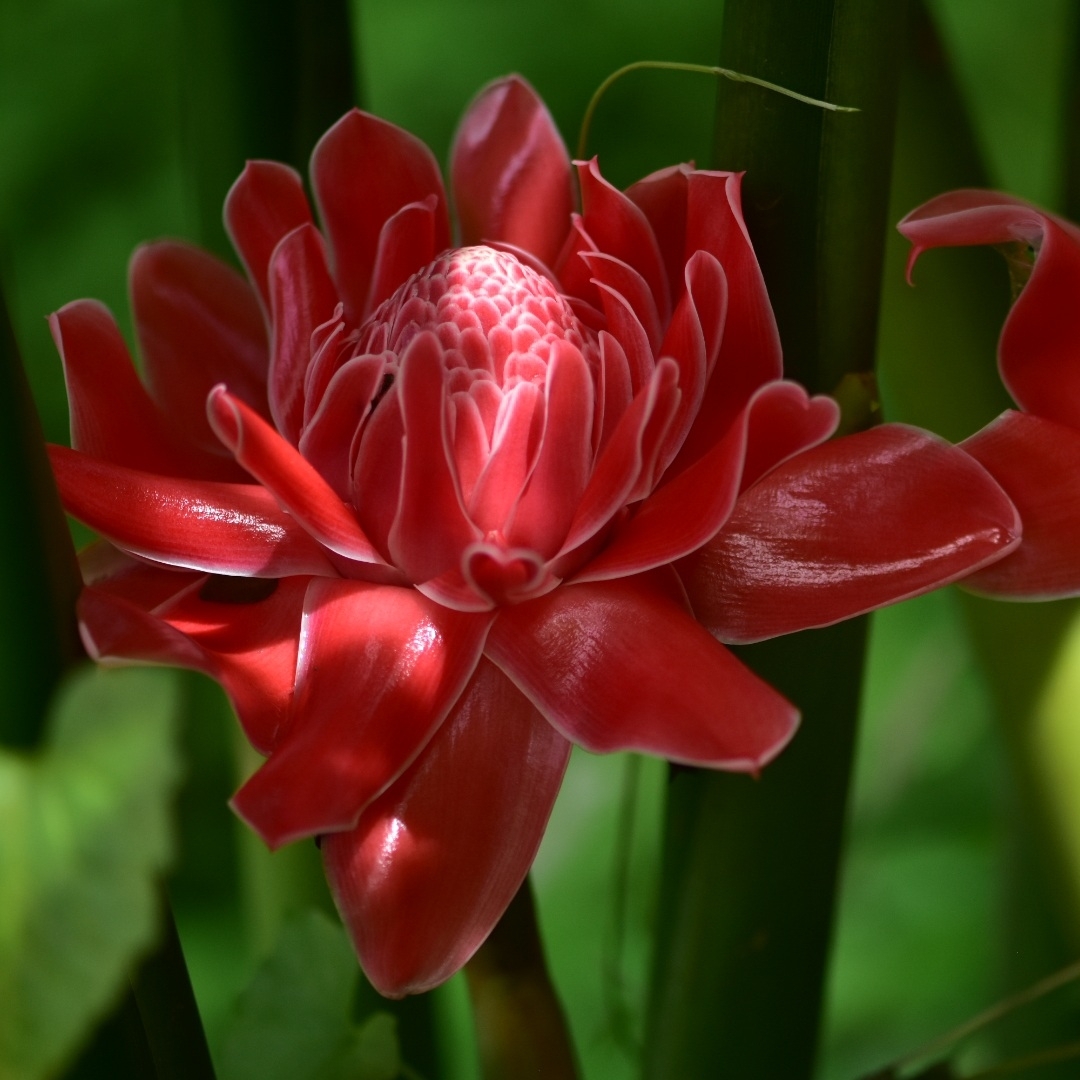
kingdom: Plantae
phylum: Tracheophyta
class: Liliopsida
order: Zingiberales
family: Zingiberaceae
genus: Etlingera
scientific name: Etlingera elatior
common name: Philippine waxflower
